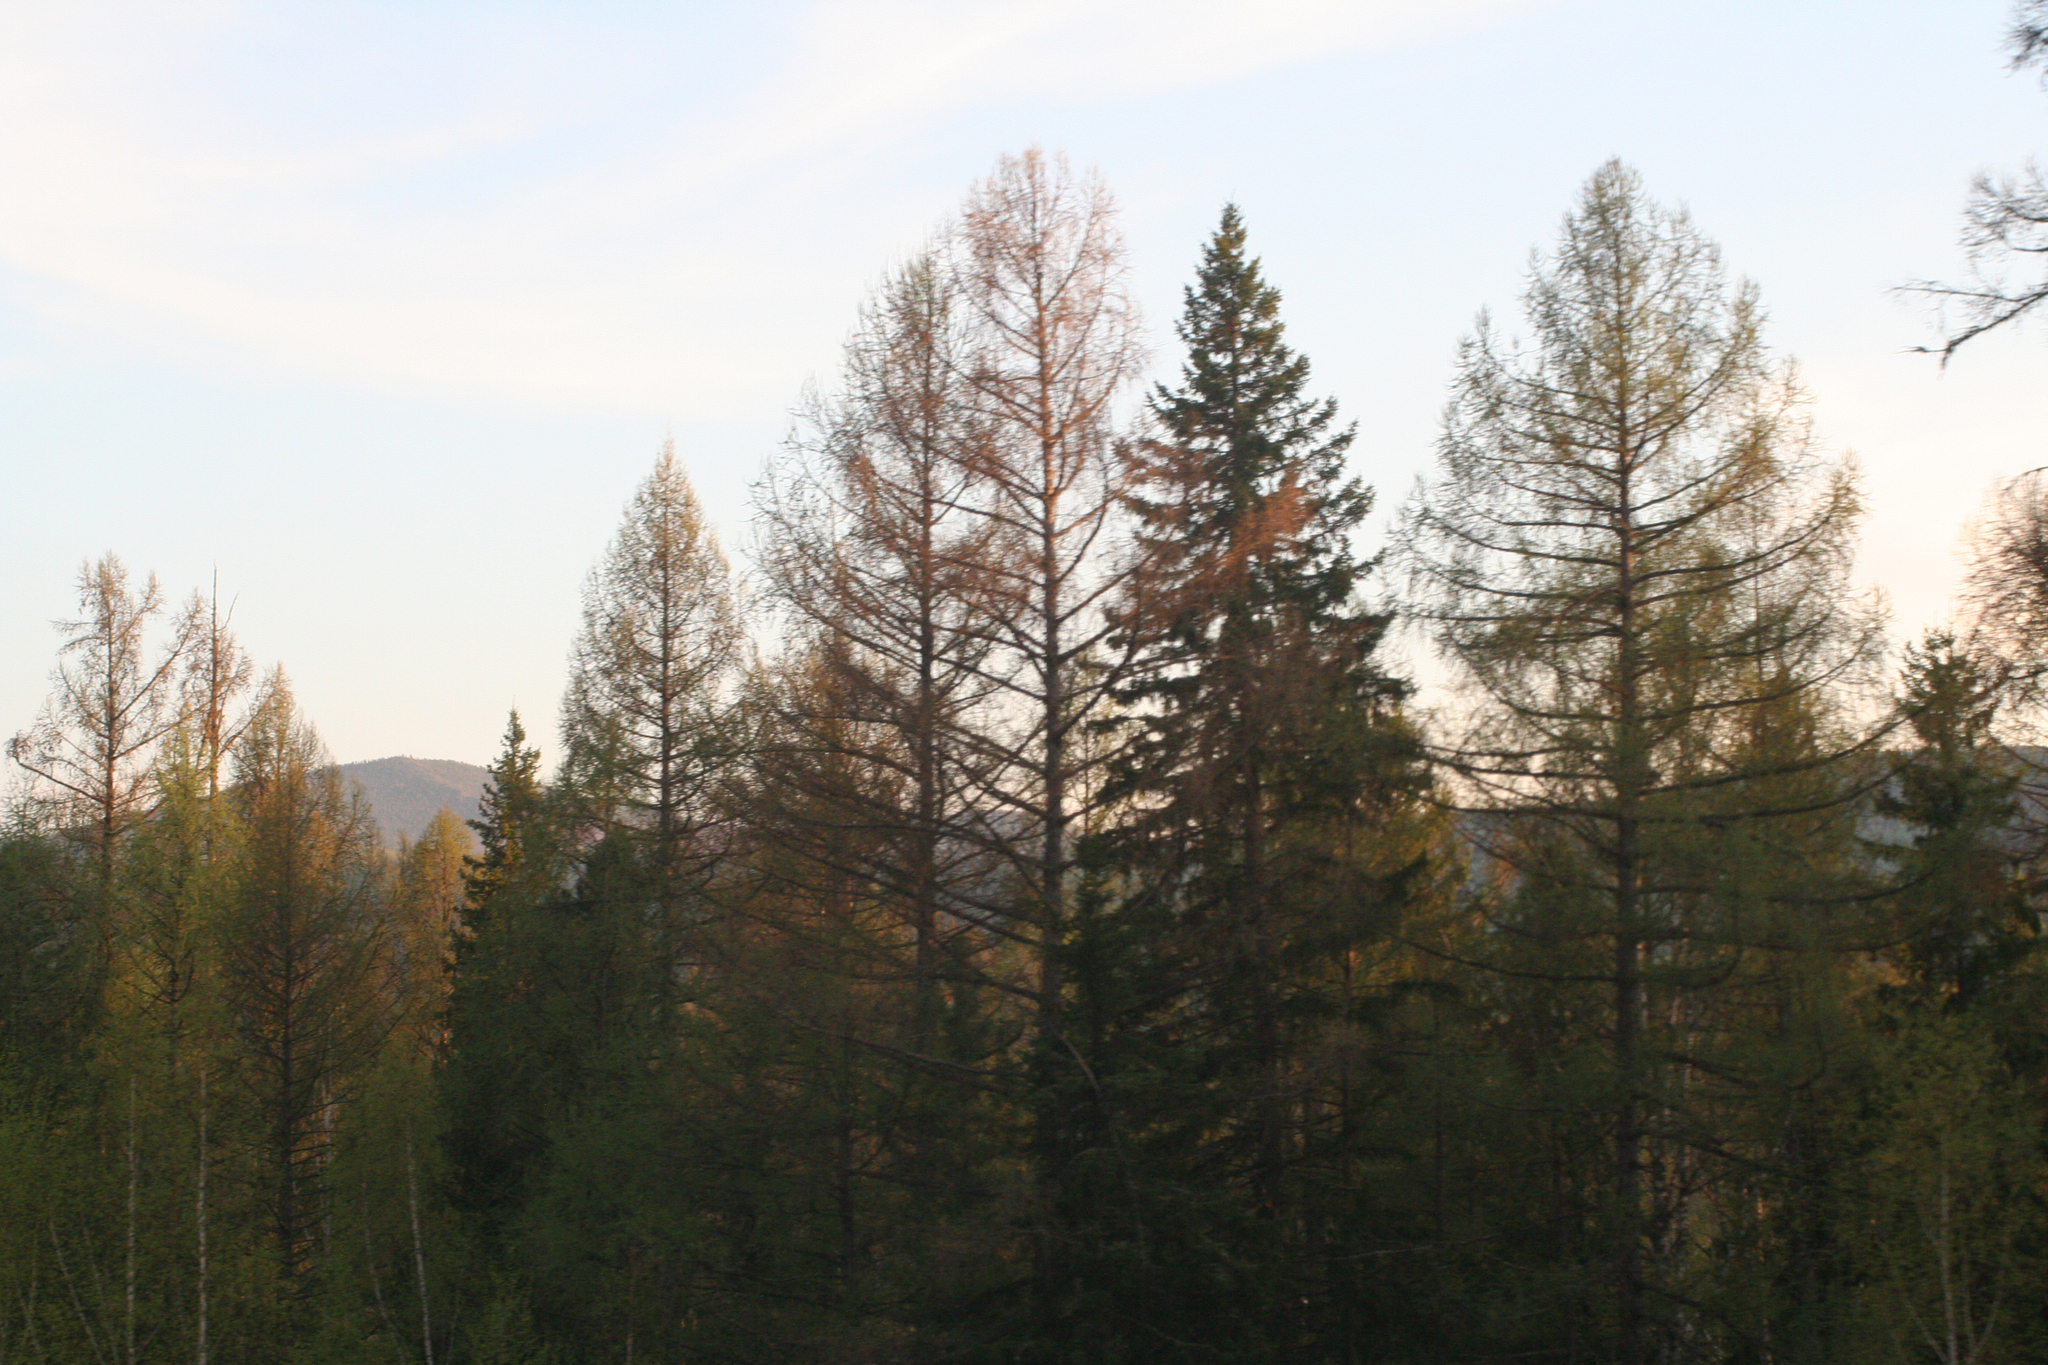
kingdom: Plantae
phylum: Tracheophyta
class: Pinopsida
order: Pinales
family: Pinaceae
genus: Larix
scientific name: Larix sibirica
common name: Siberian larch
